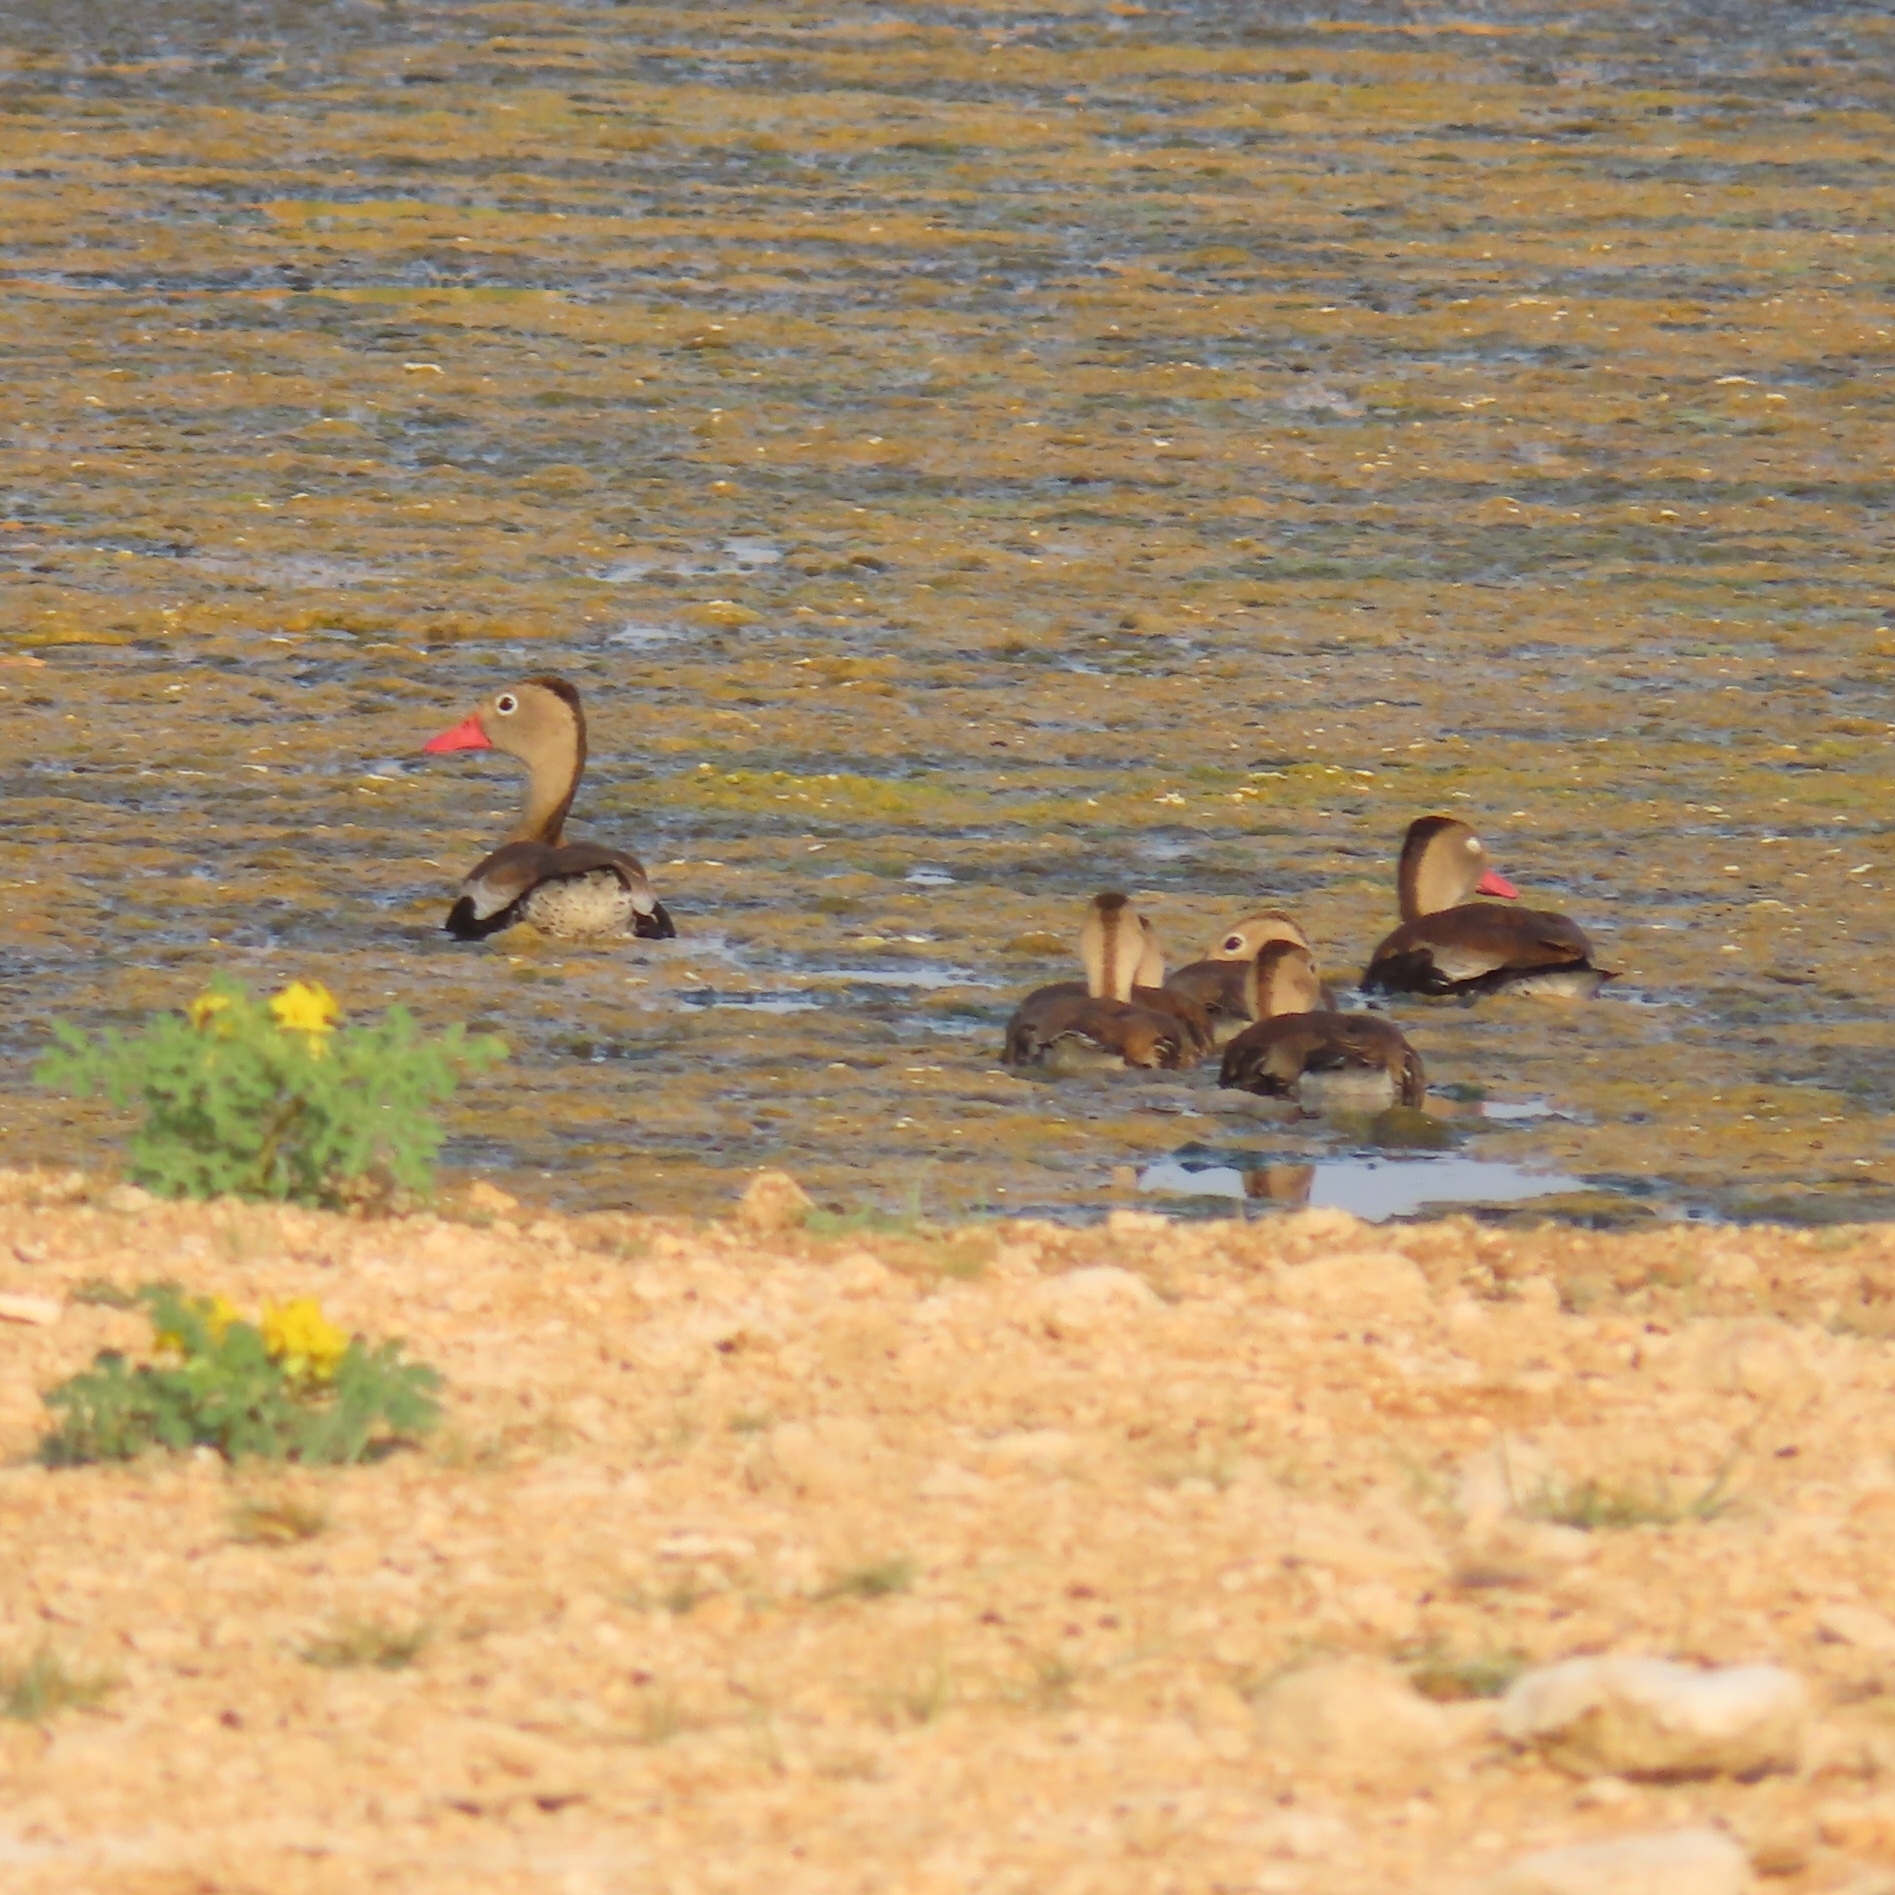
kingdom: Animalia
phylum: Chordata
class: Aves
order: Anseriformes
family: Anatidae
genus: Dendrocygna
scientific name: Dendrocygna autumnalis
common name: Black-bellied whistling duck
